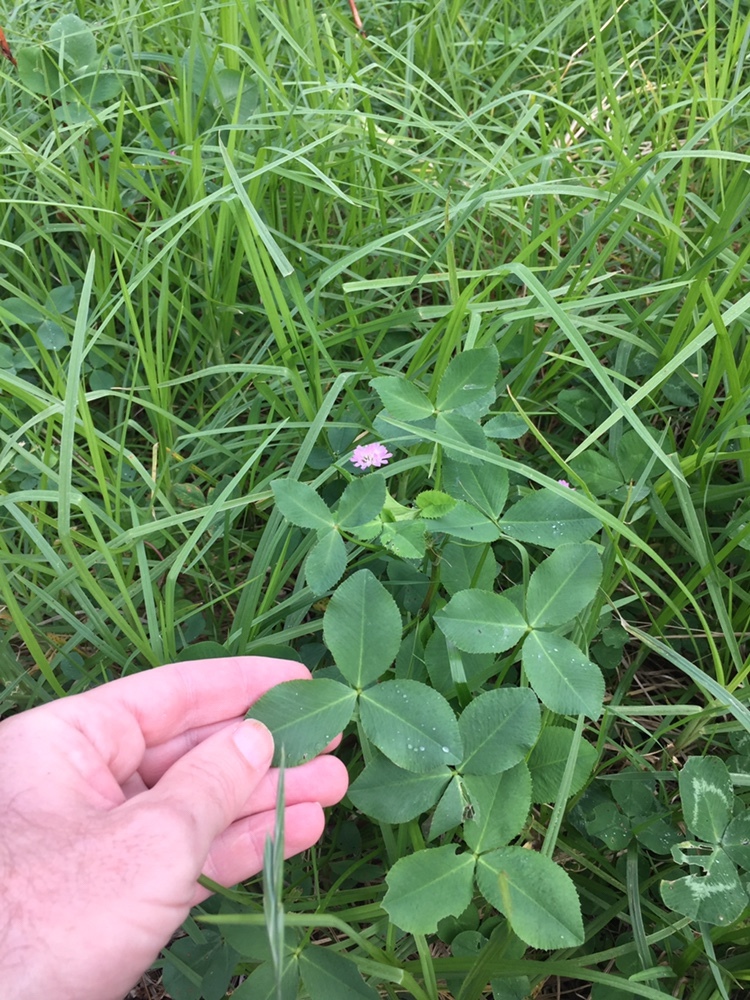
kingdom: Plantae
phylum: Tracheophyta
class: Magnoliopsida
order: Fabales
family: Fabaceae
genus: Trifolium
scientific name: Trifolium resupinatum
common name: Reversed clover
